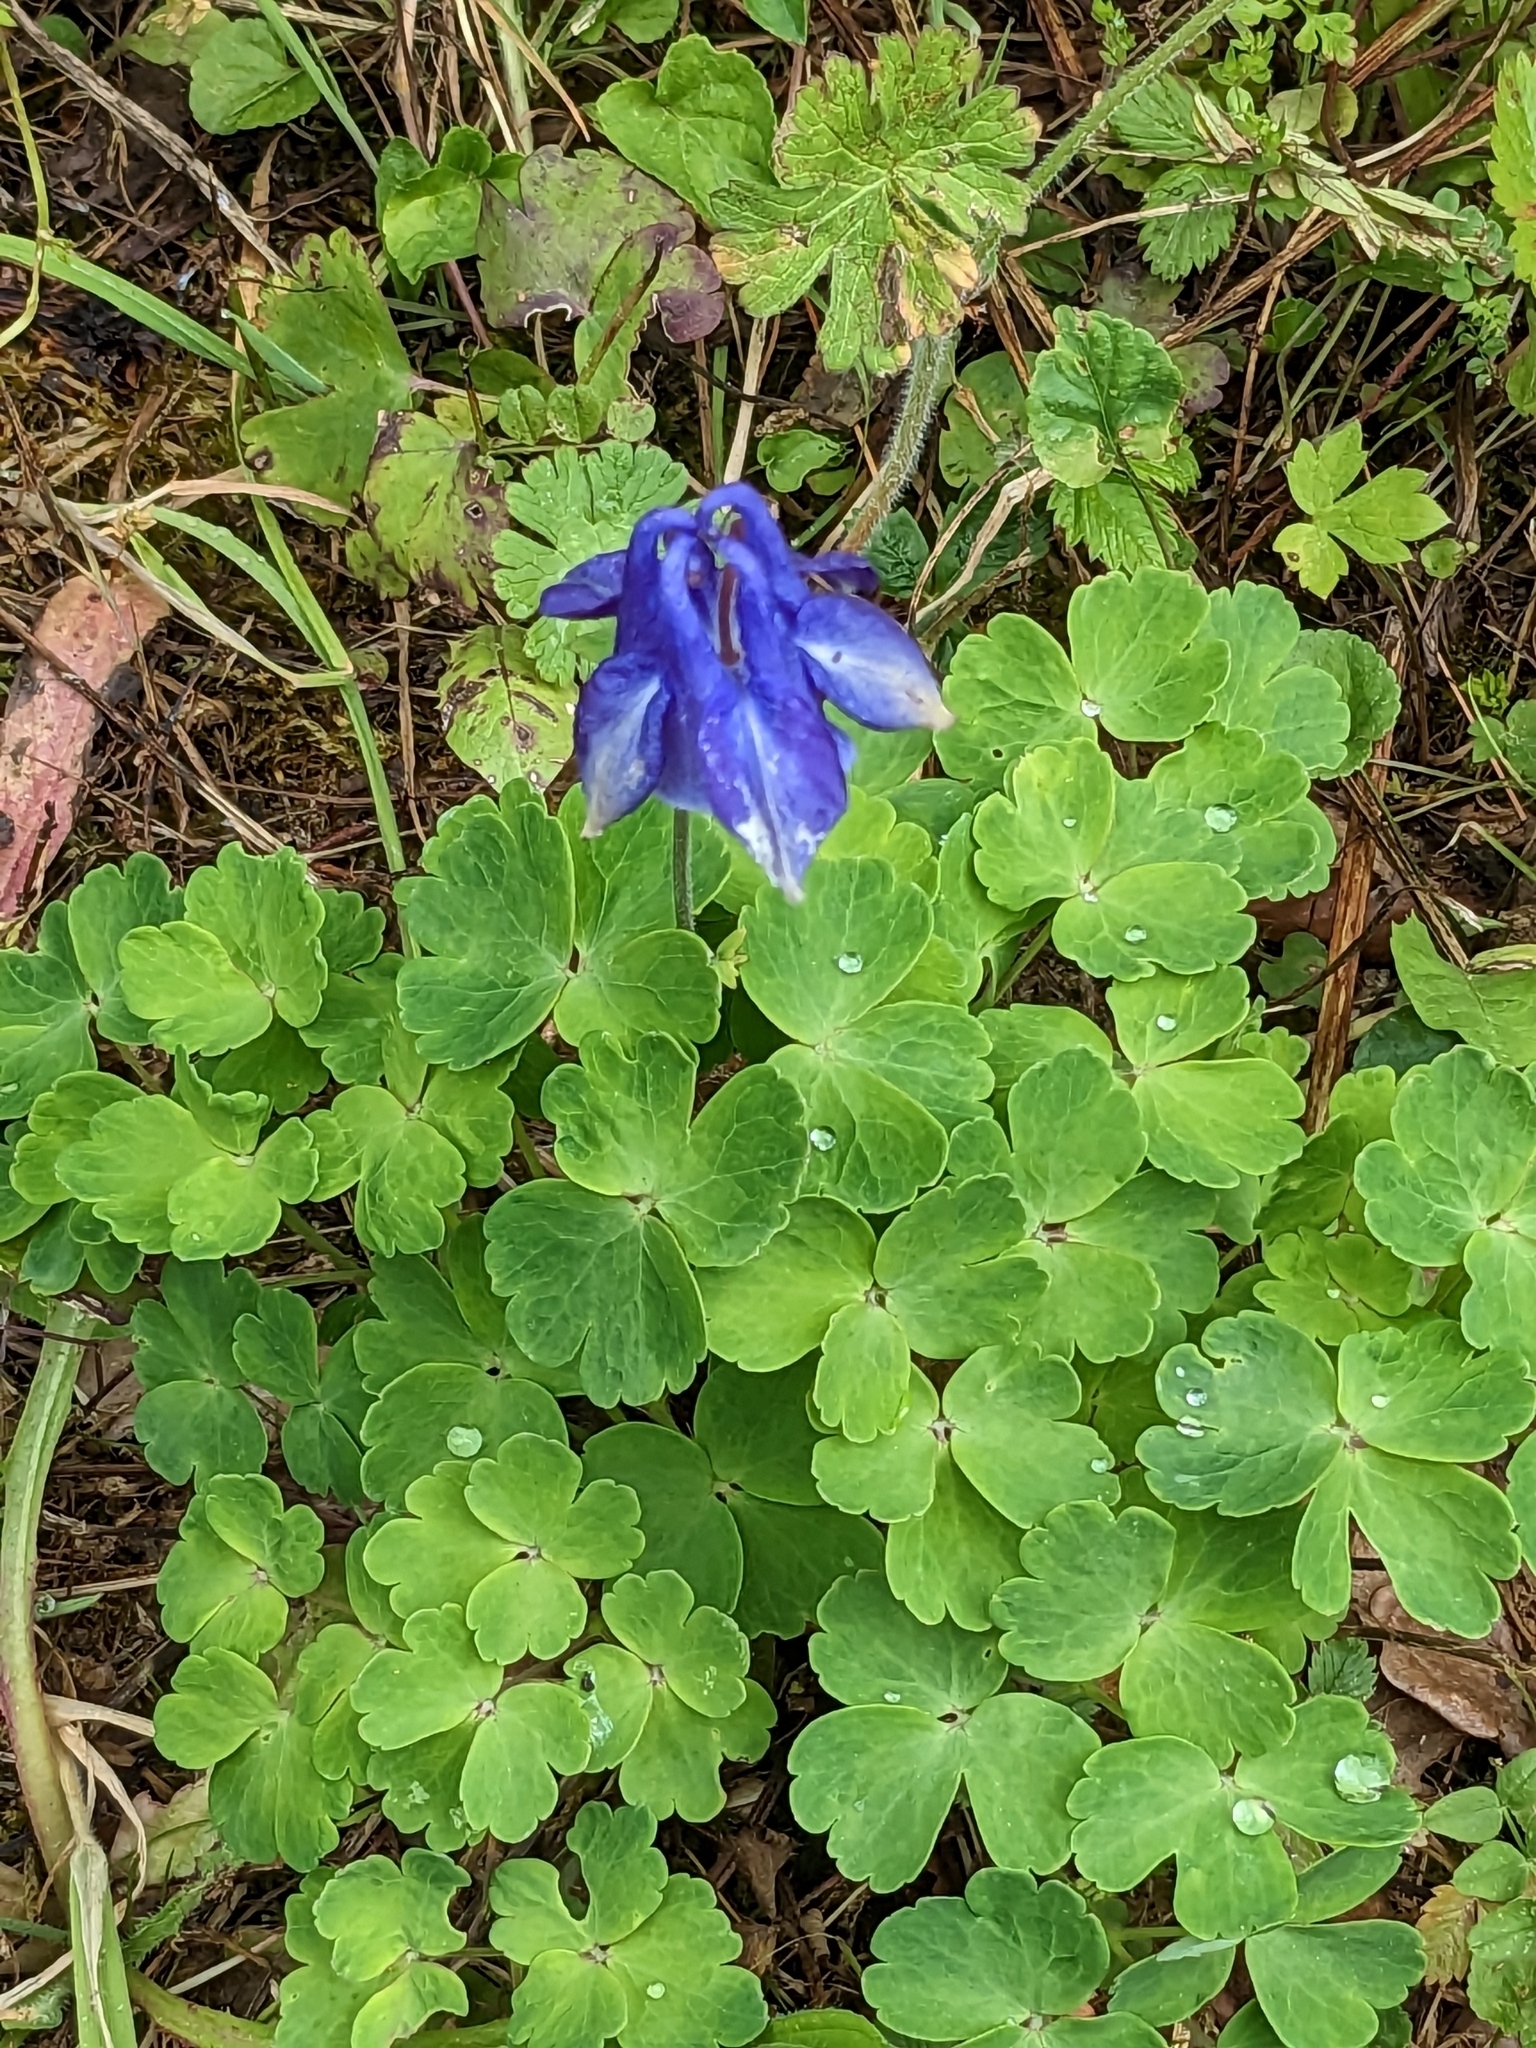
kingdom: Plantae
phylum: Tracheophyta
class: Magnoliopsida
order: Ranunculales
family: Ranunculaceae
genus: Aquilegia
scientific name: Aquilegia vulgaris
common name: Columbine
